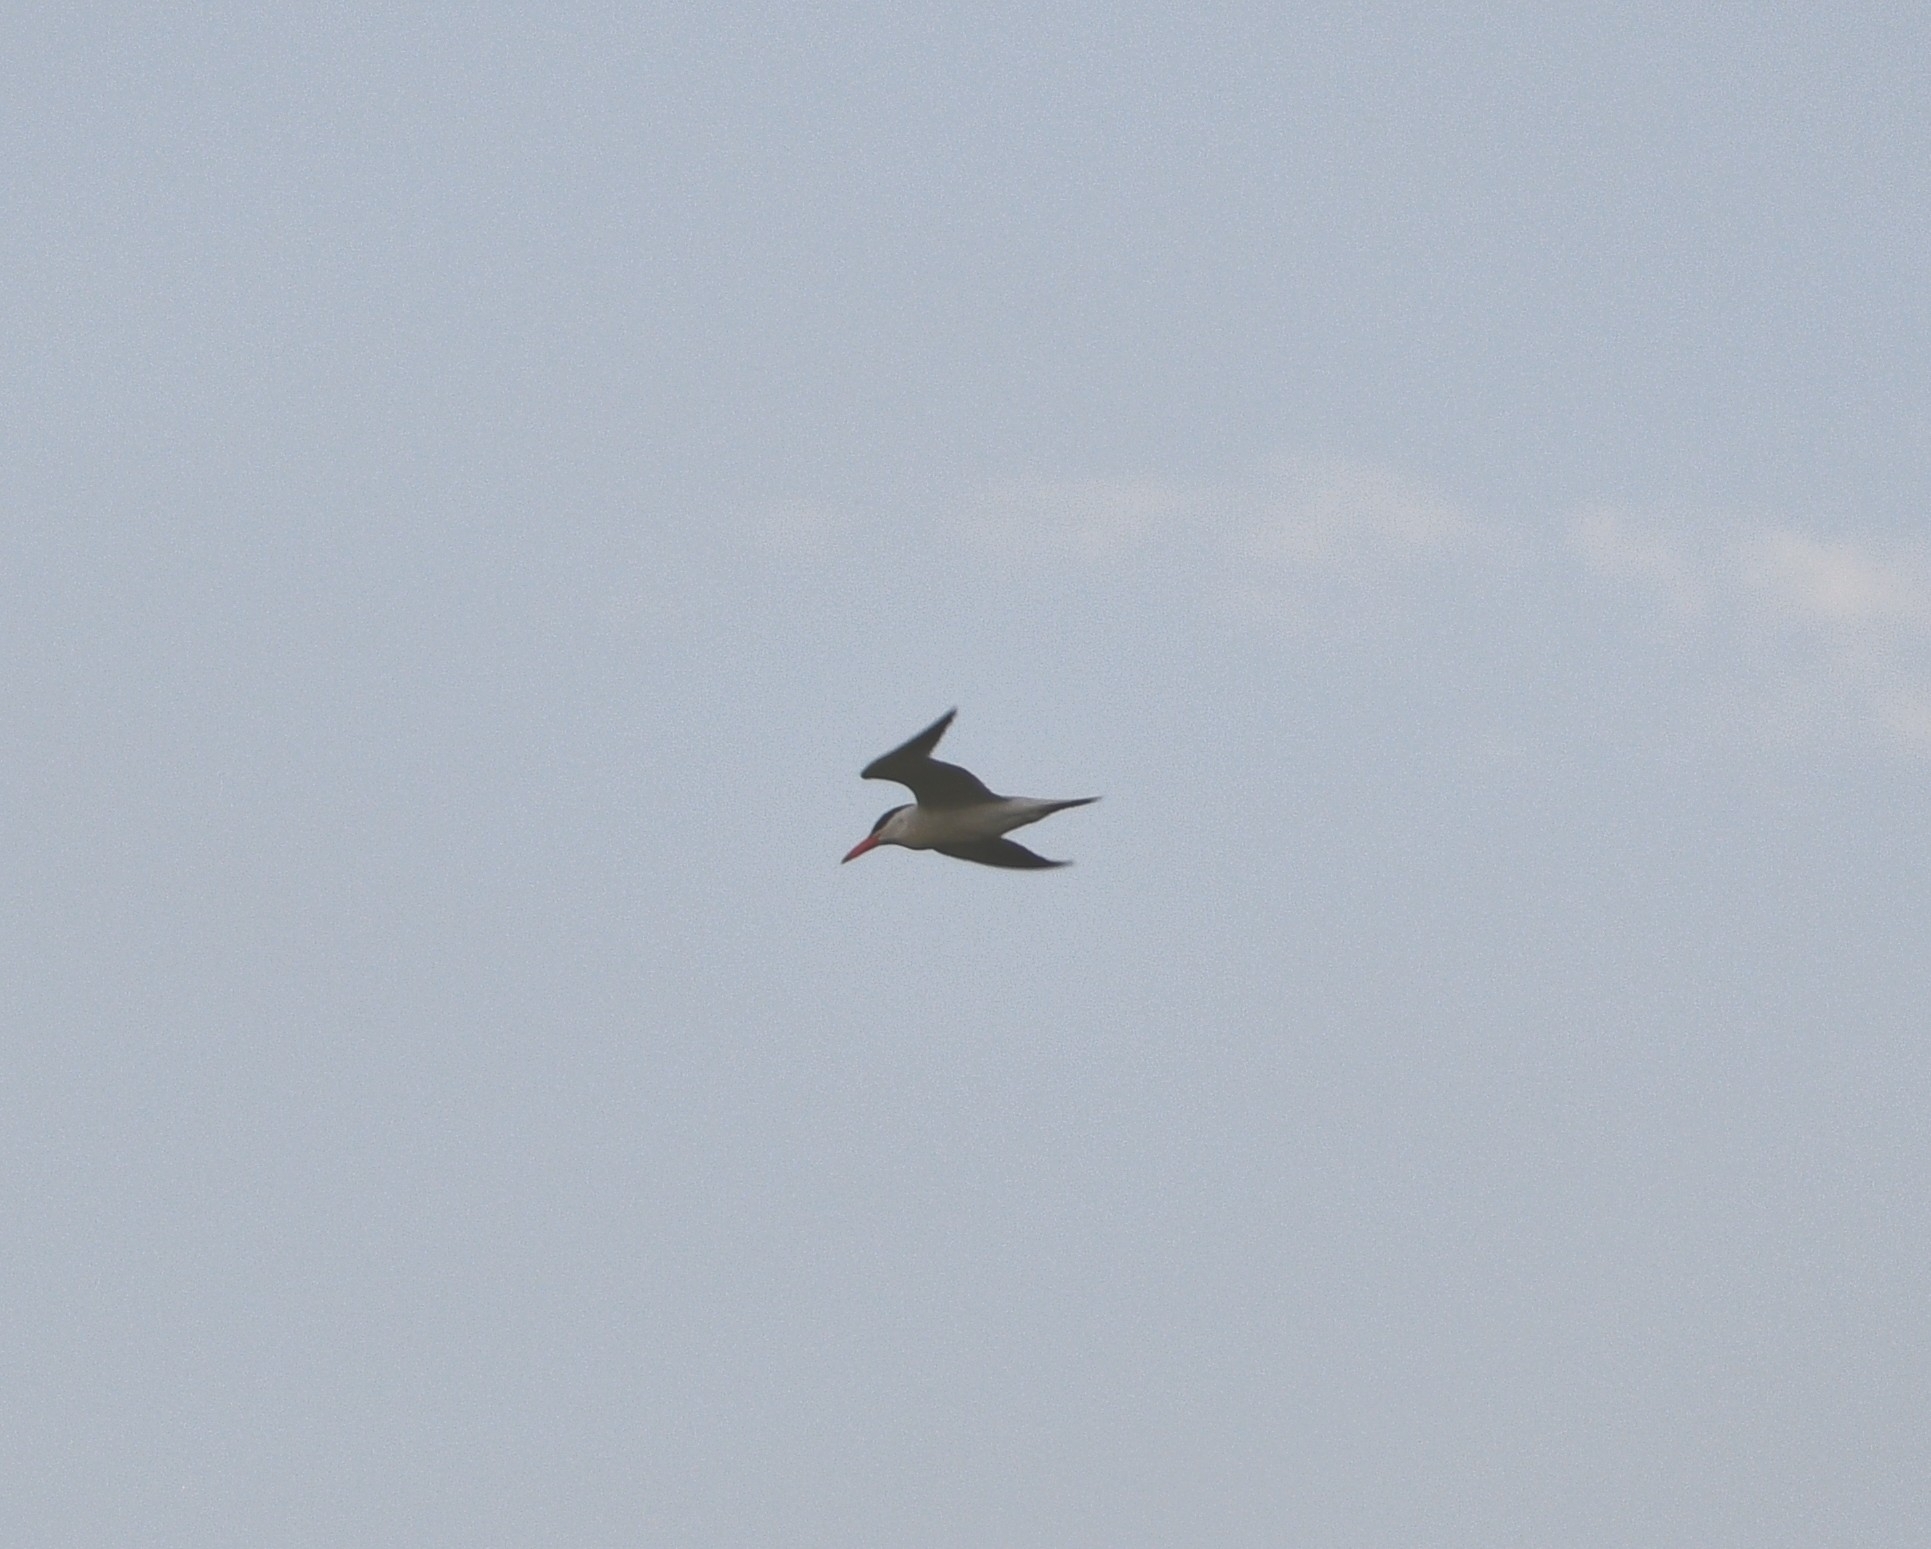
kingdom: Animalia
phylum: Chordata
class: Aves
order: Charadriiformes
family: Laridae
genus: Hydroprogne
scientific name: Hydroprogne caspia
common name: Caspian tern
